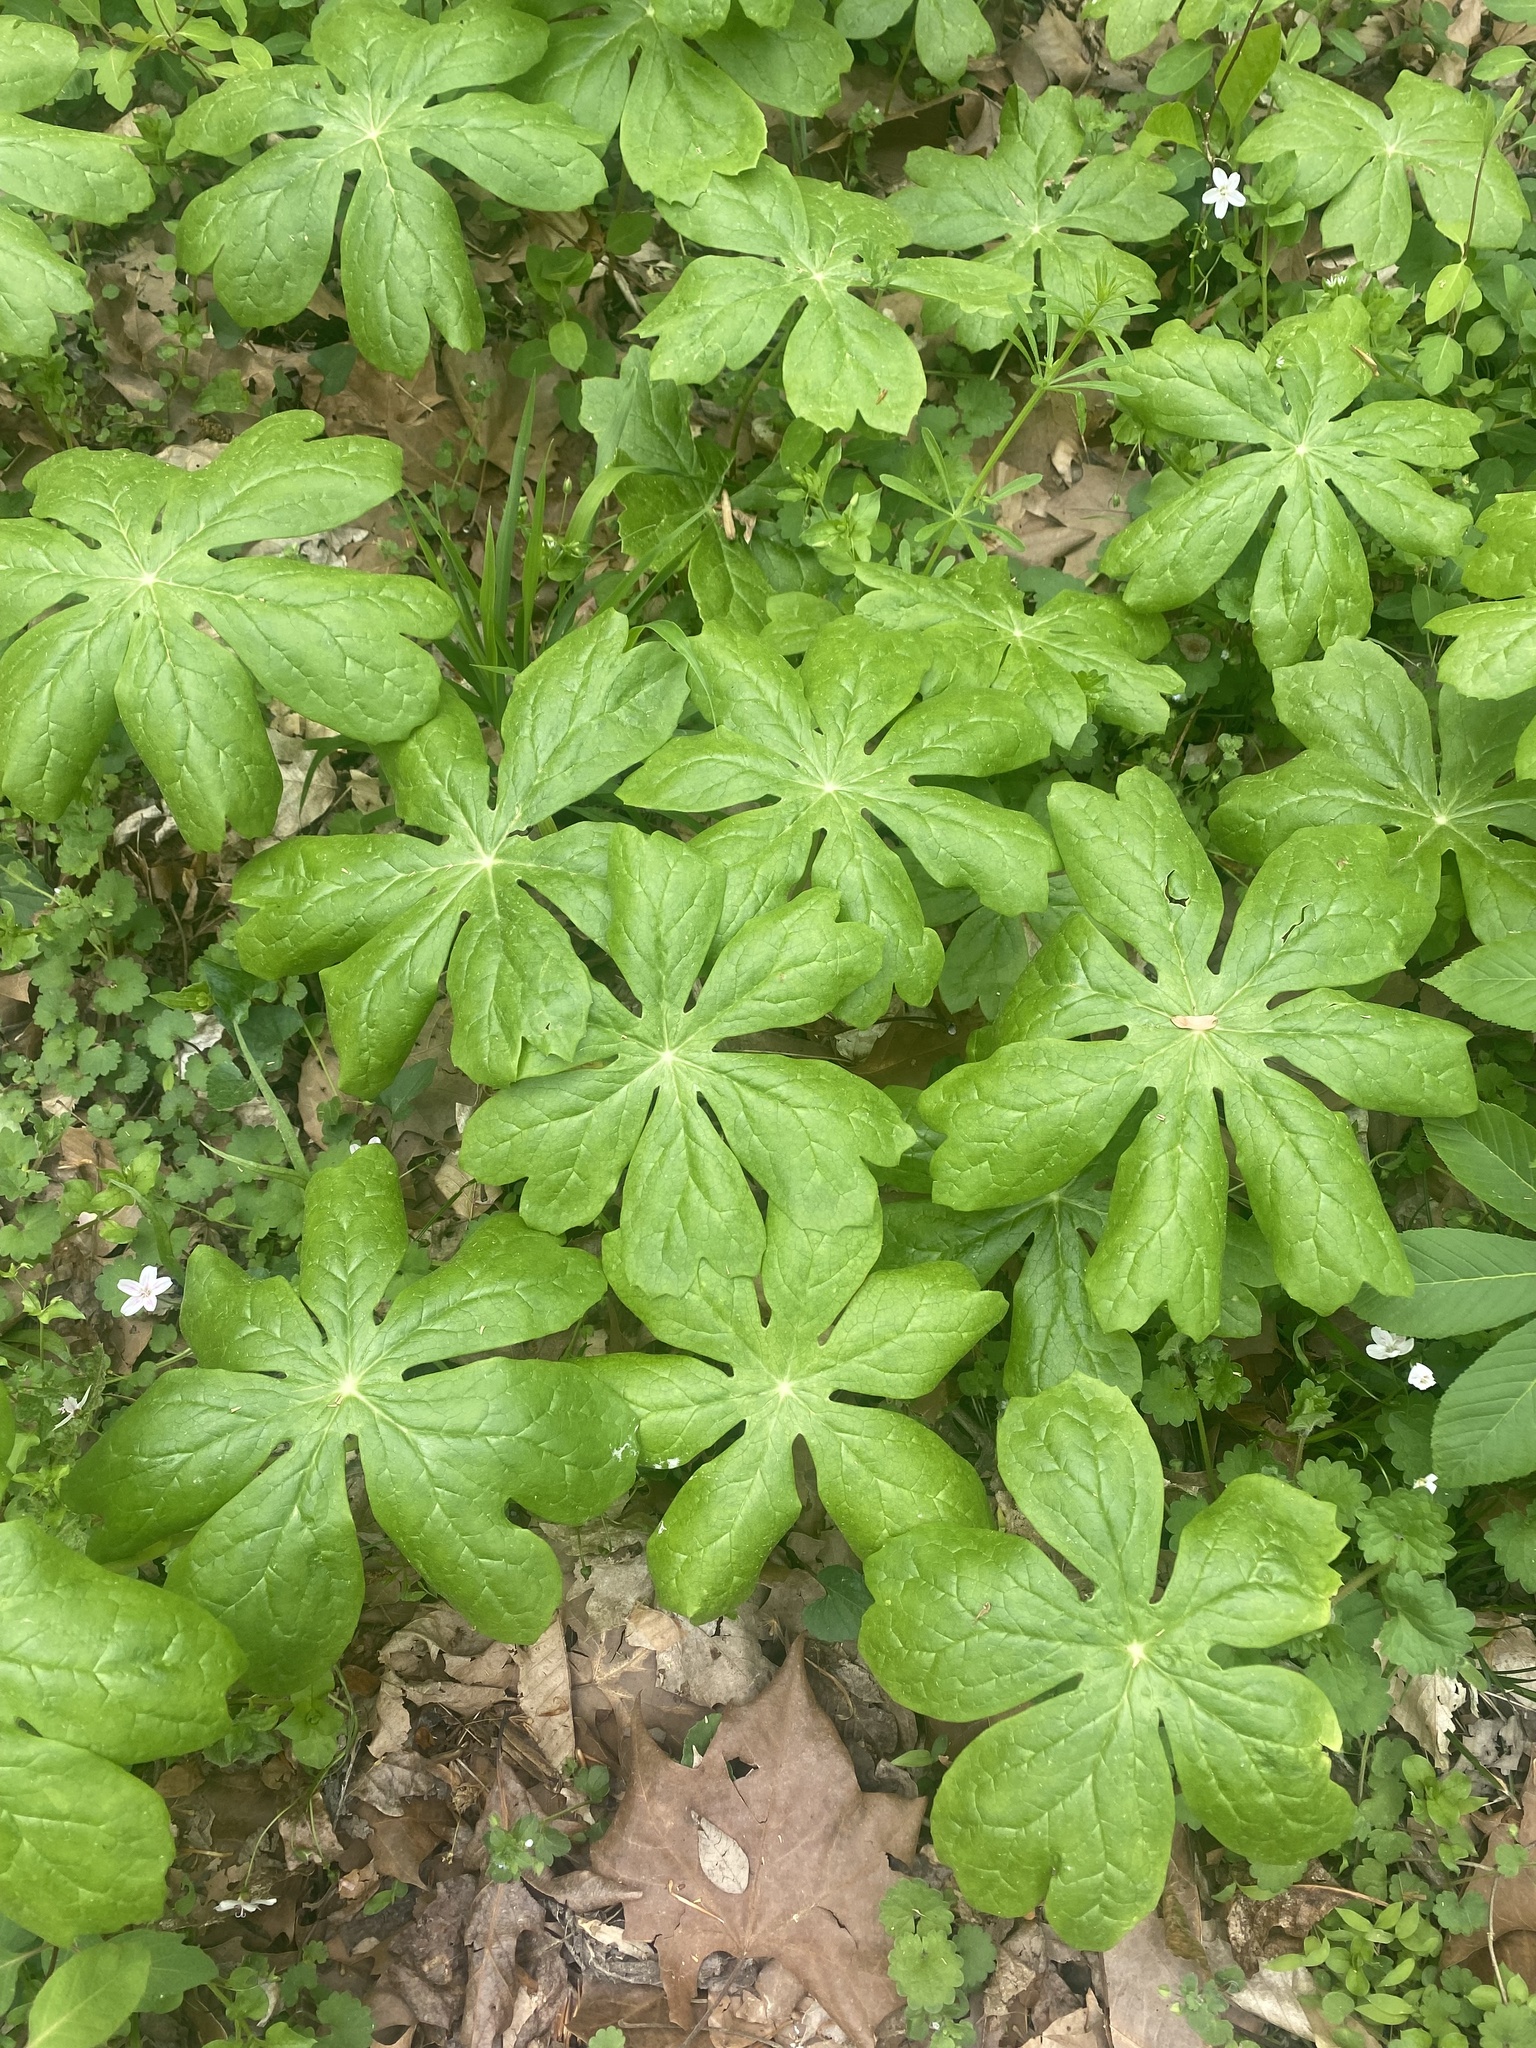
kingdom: Plantae
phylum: Tracheophyta
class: Magnoliopsida
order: Ranunculales
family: Berberidaceae
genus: Podophyllum
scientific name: Podophyllum peltatum
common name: Wild mandrake
